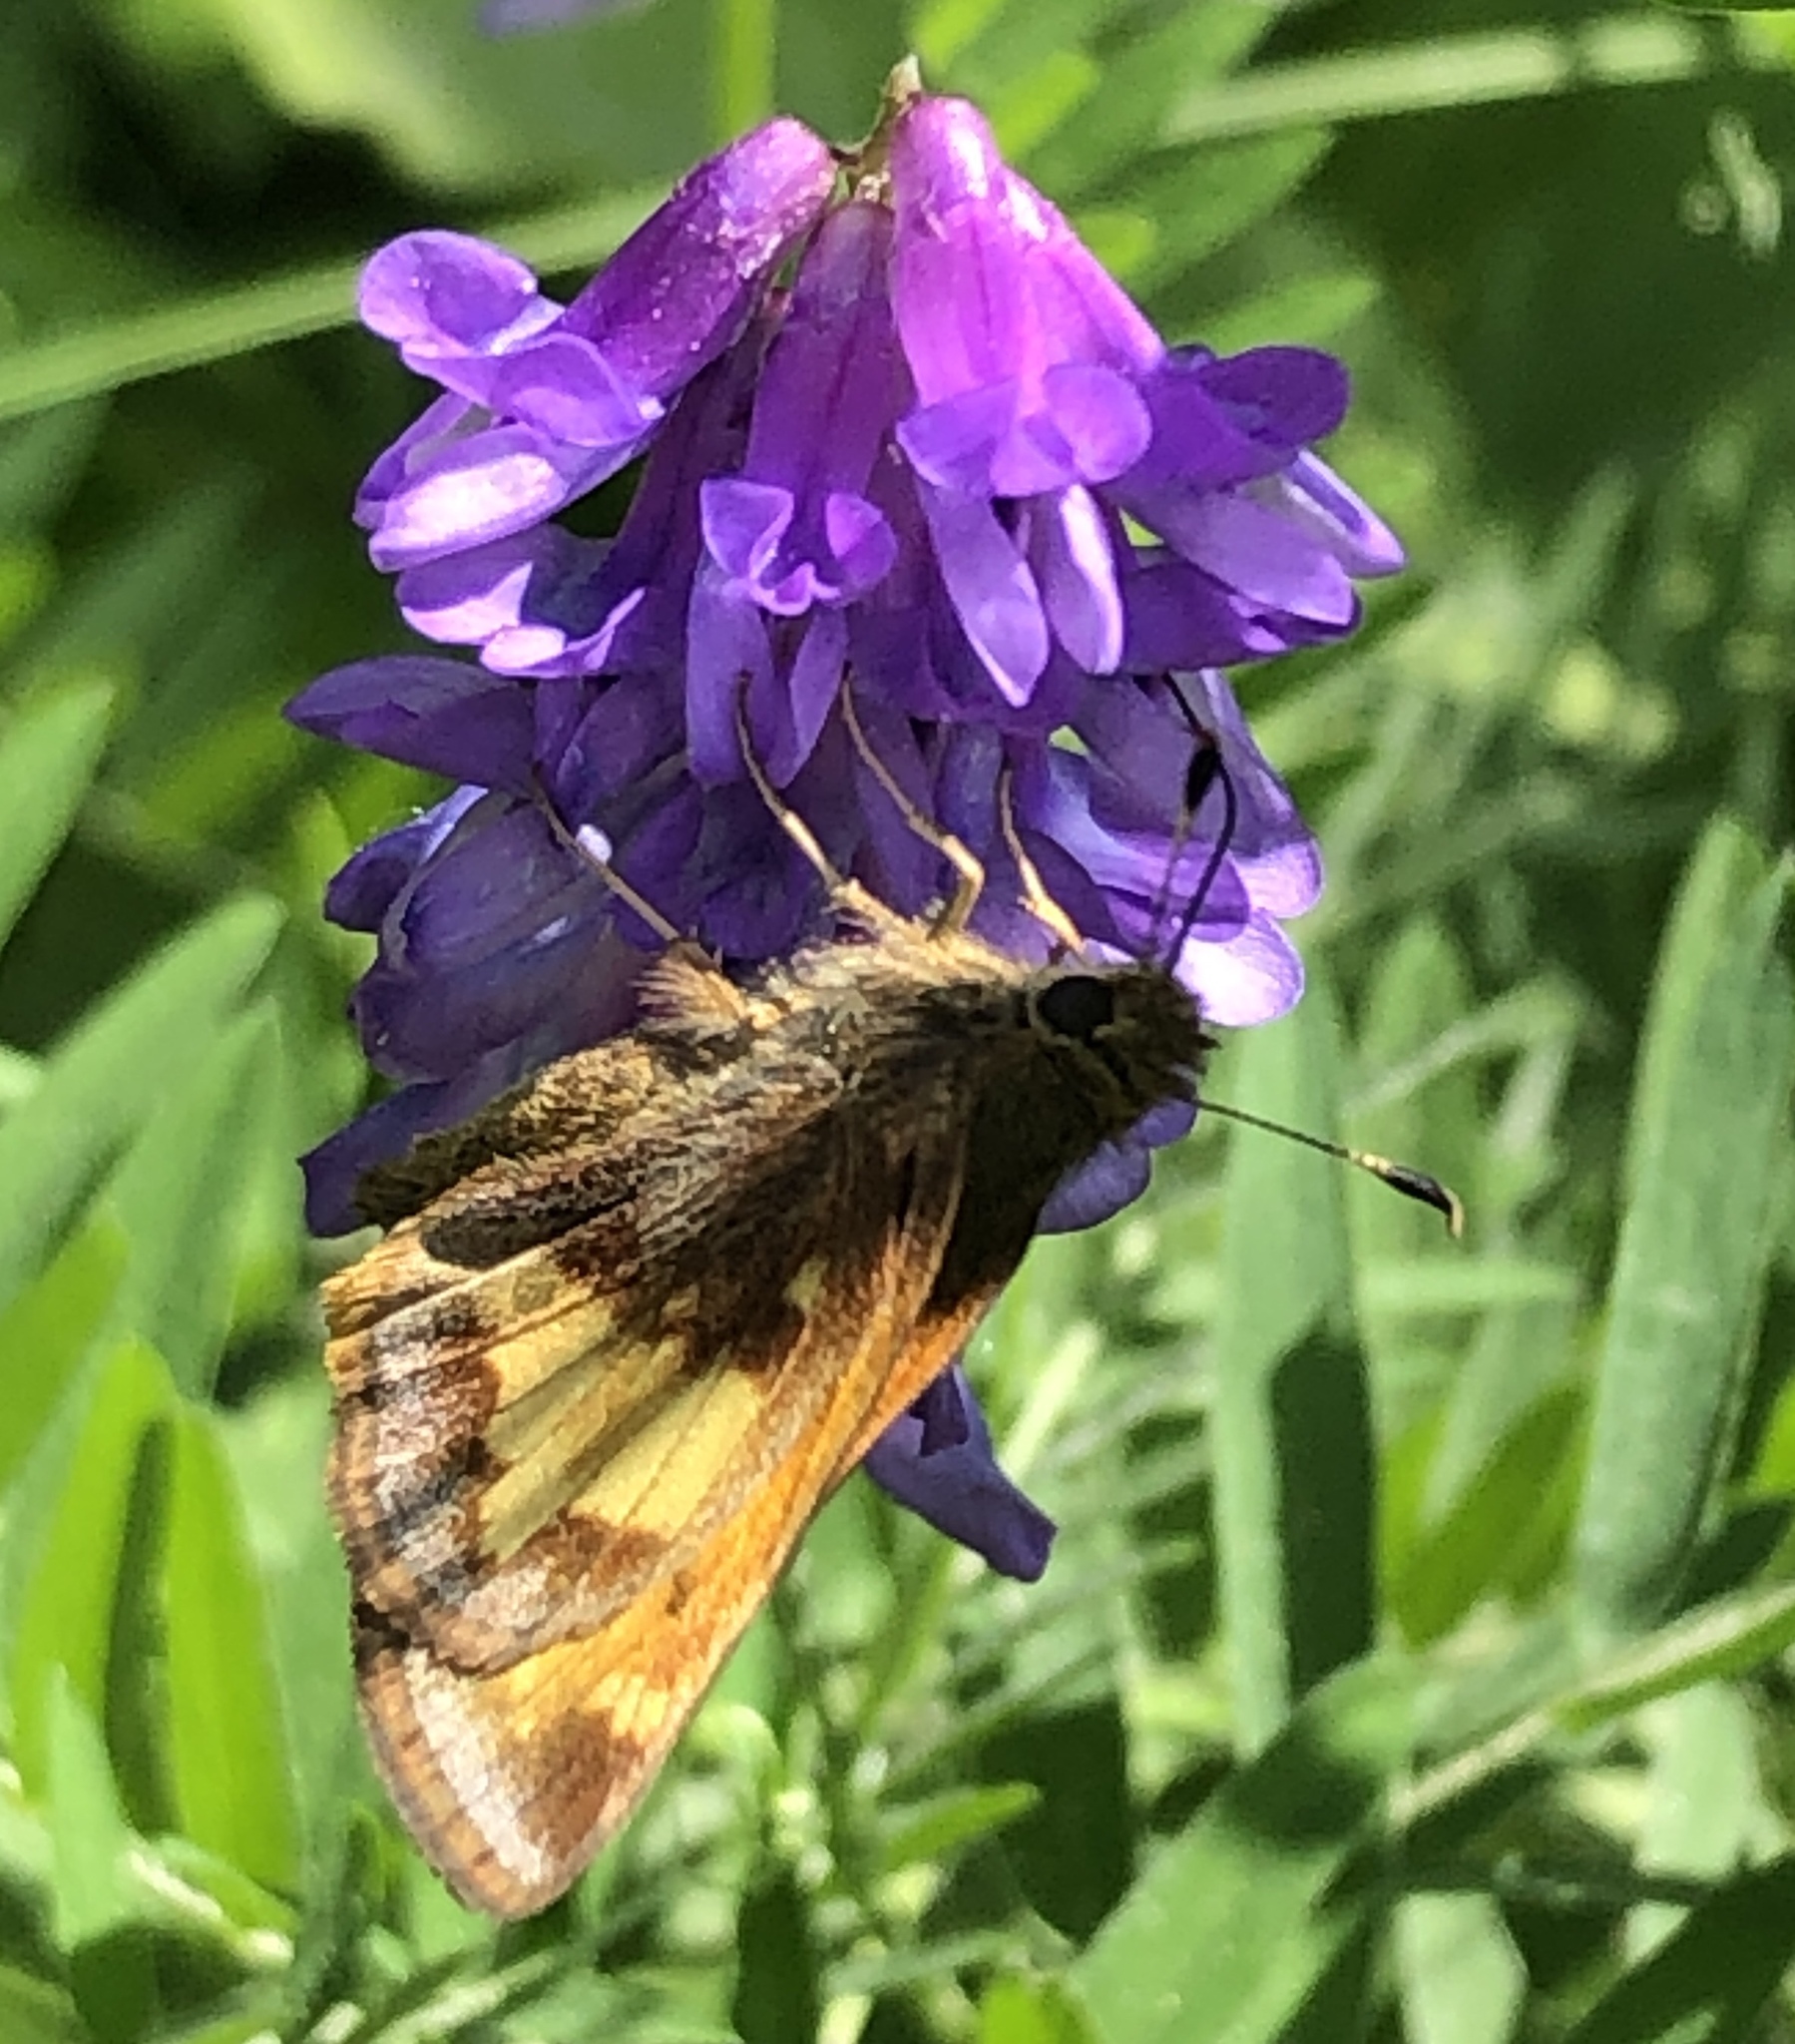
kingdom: Animalia
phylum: Arthropoda
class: Insecta
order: Lepidoptera
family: Hesperiidae
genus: Lon
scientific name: Lon hobomok
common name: Hobomok skipper
